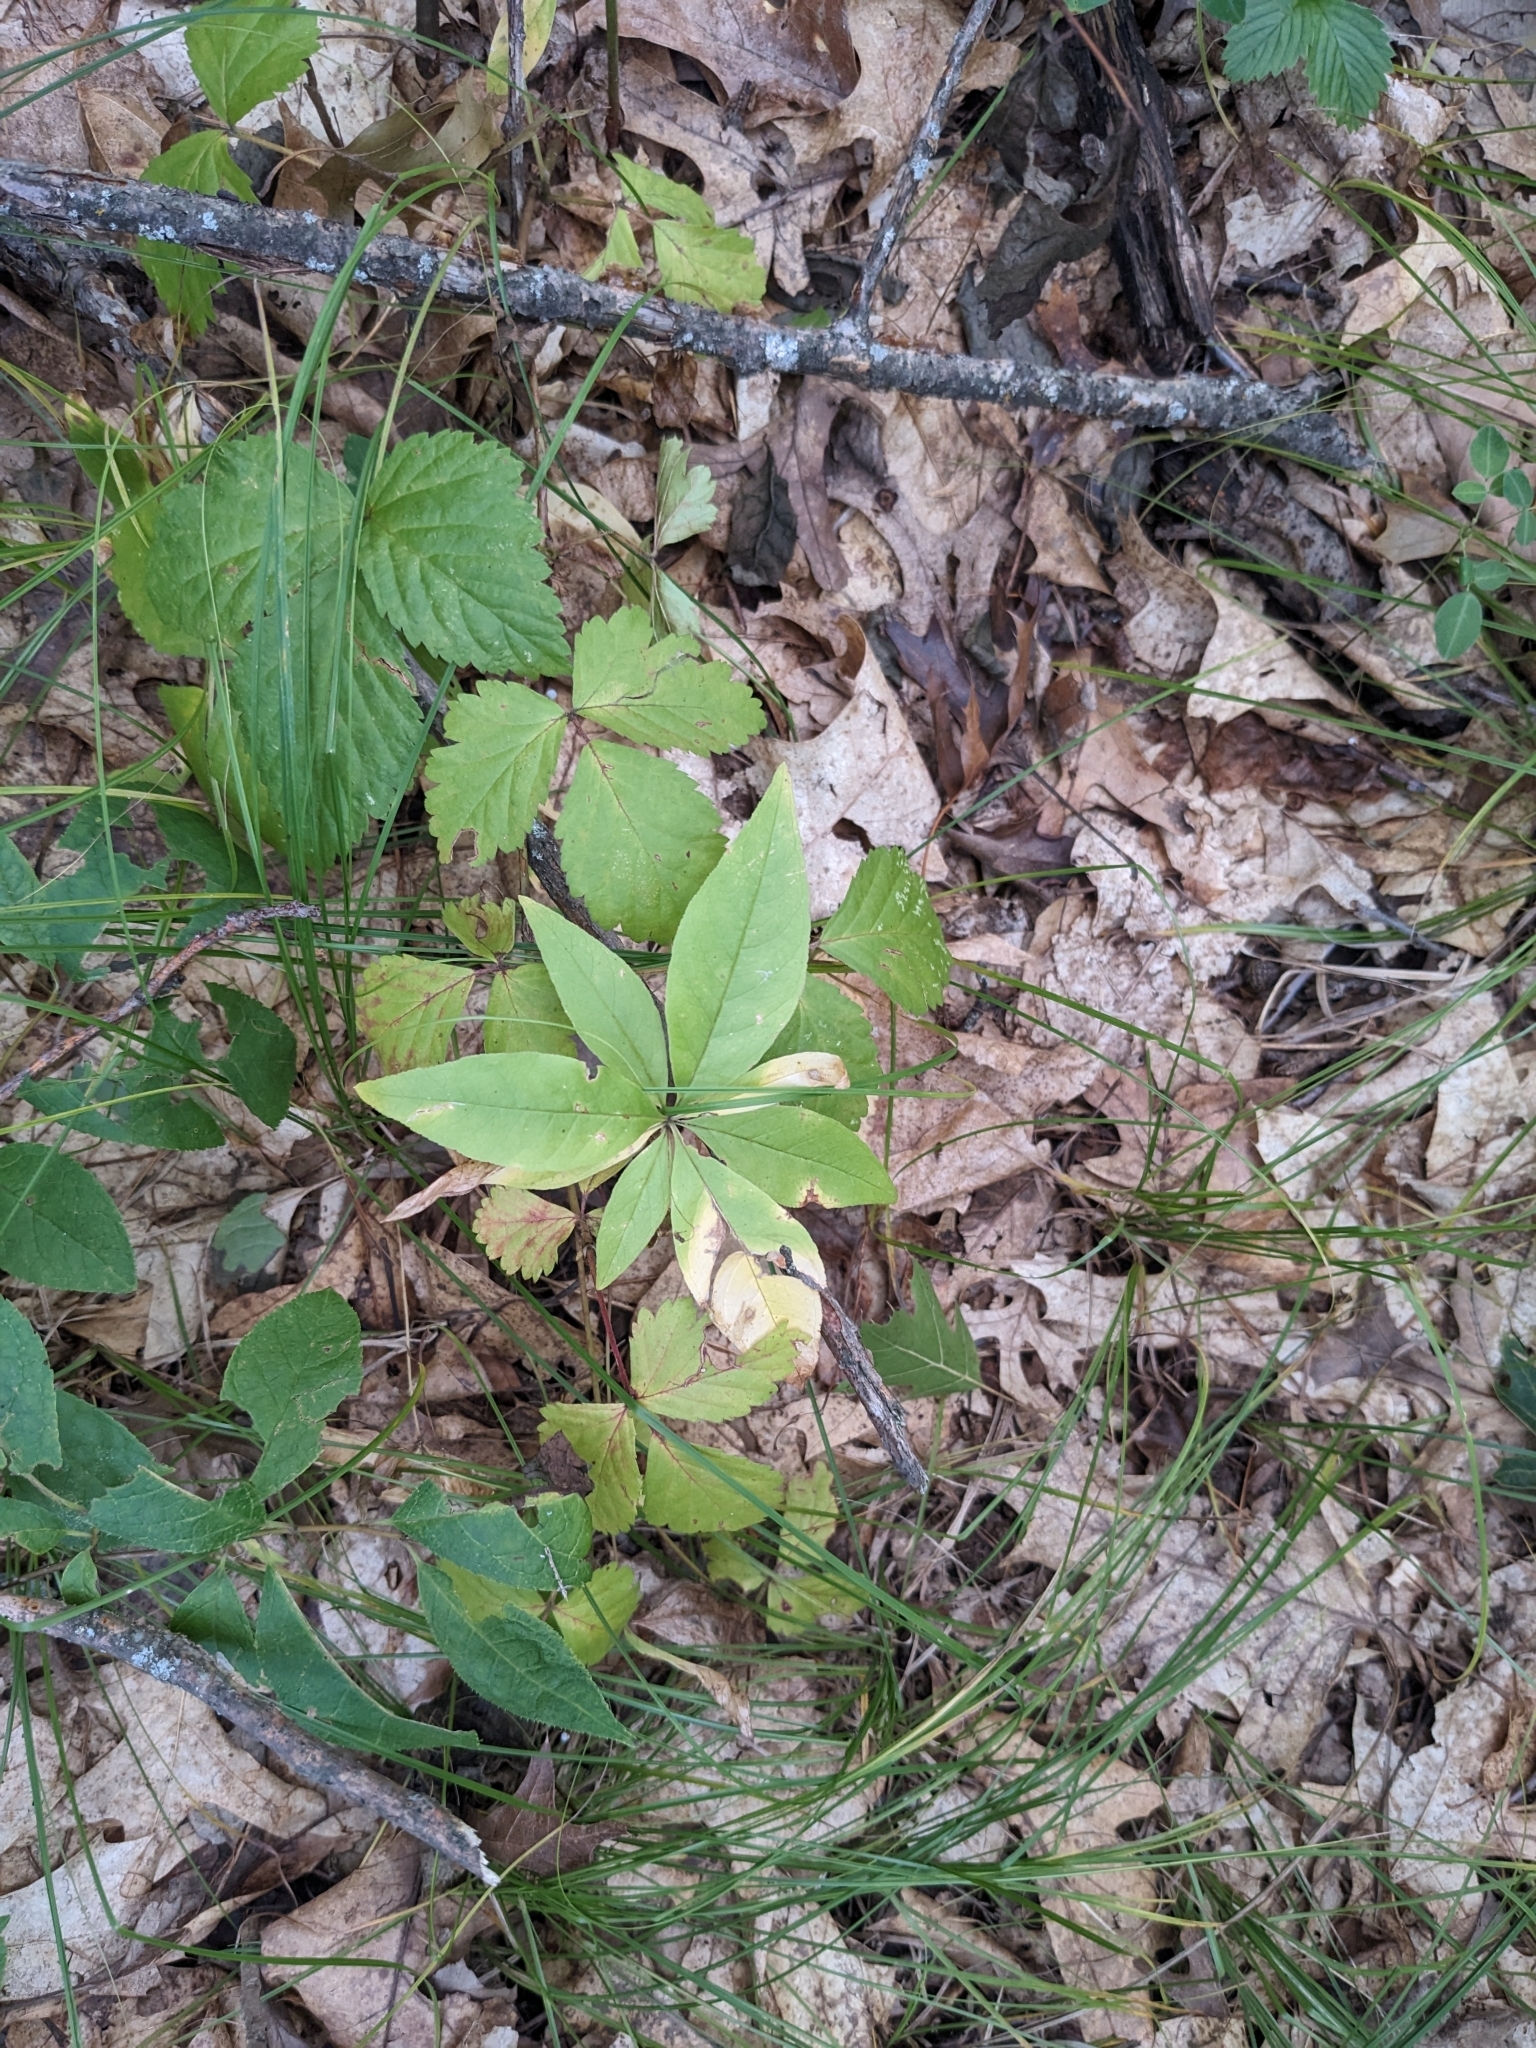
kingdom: Plantae
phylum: Tracheophyta
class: Magnoliopsida
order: Ericales
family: Primulaceae
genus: Lysimachia
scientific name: Lysimachia borealis
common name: American starflower
